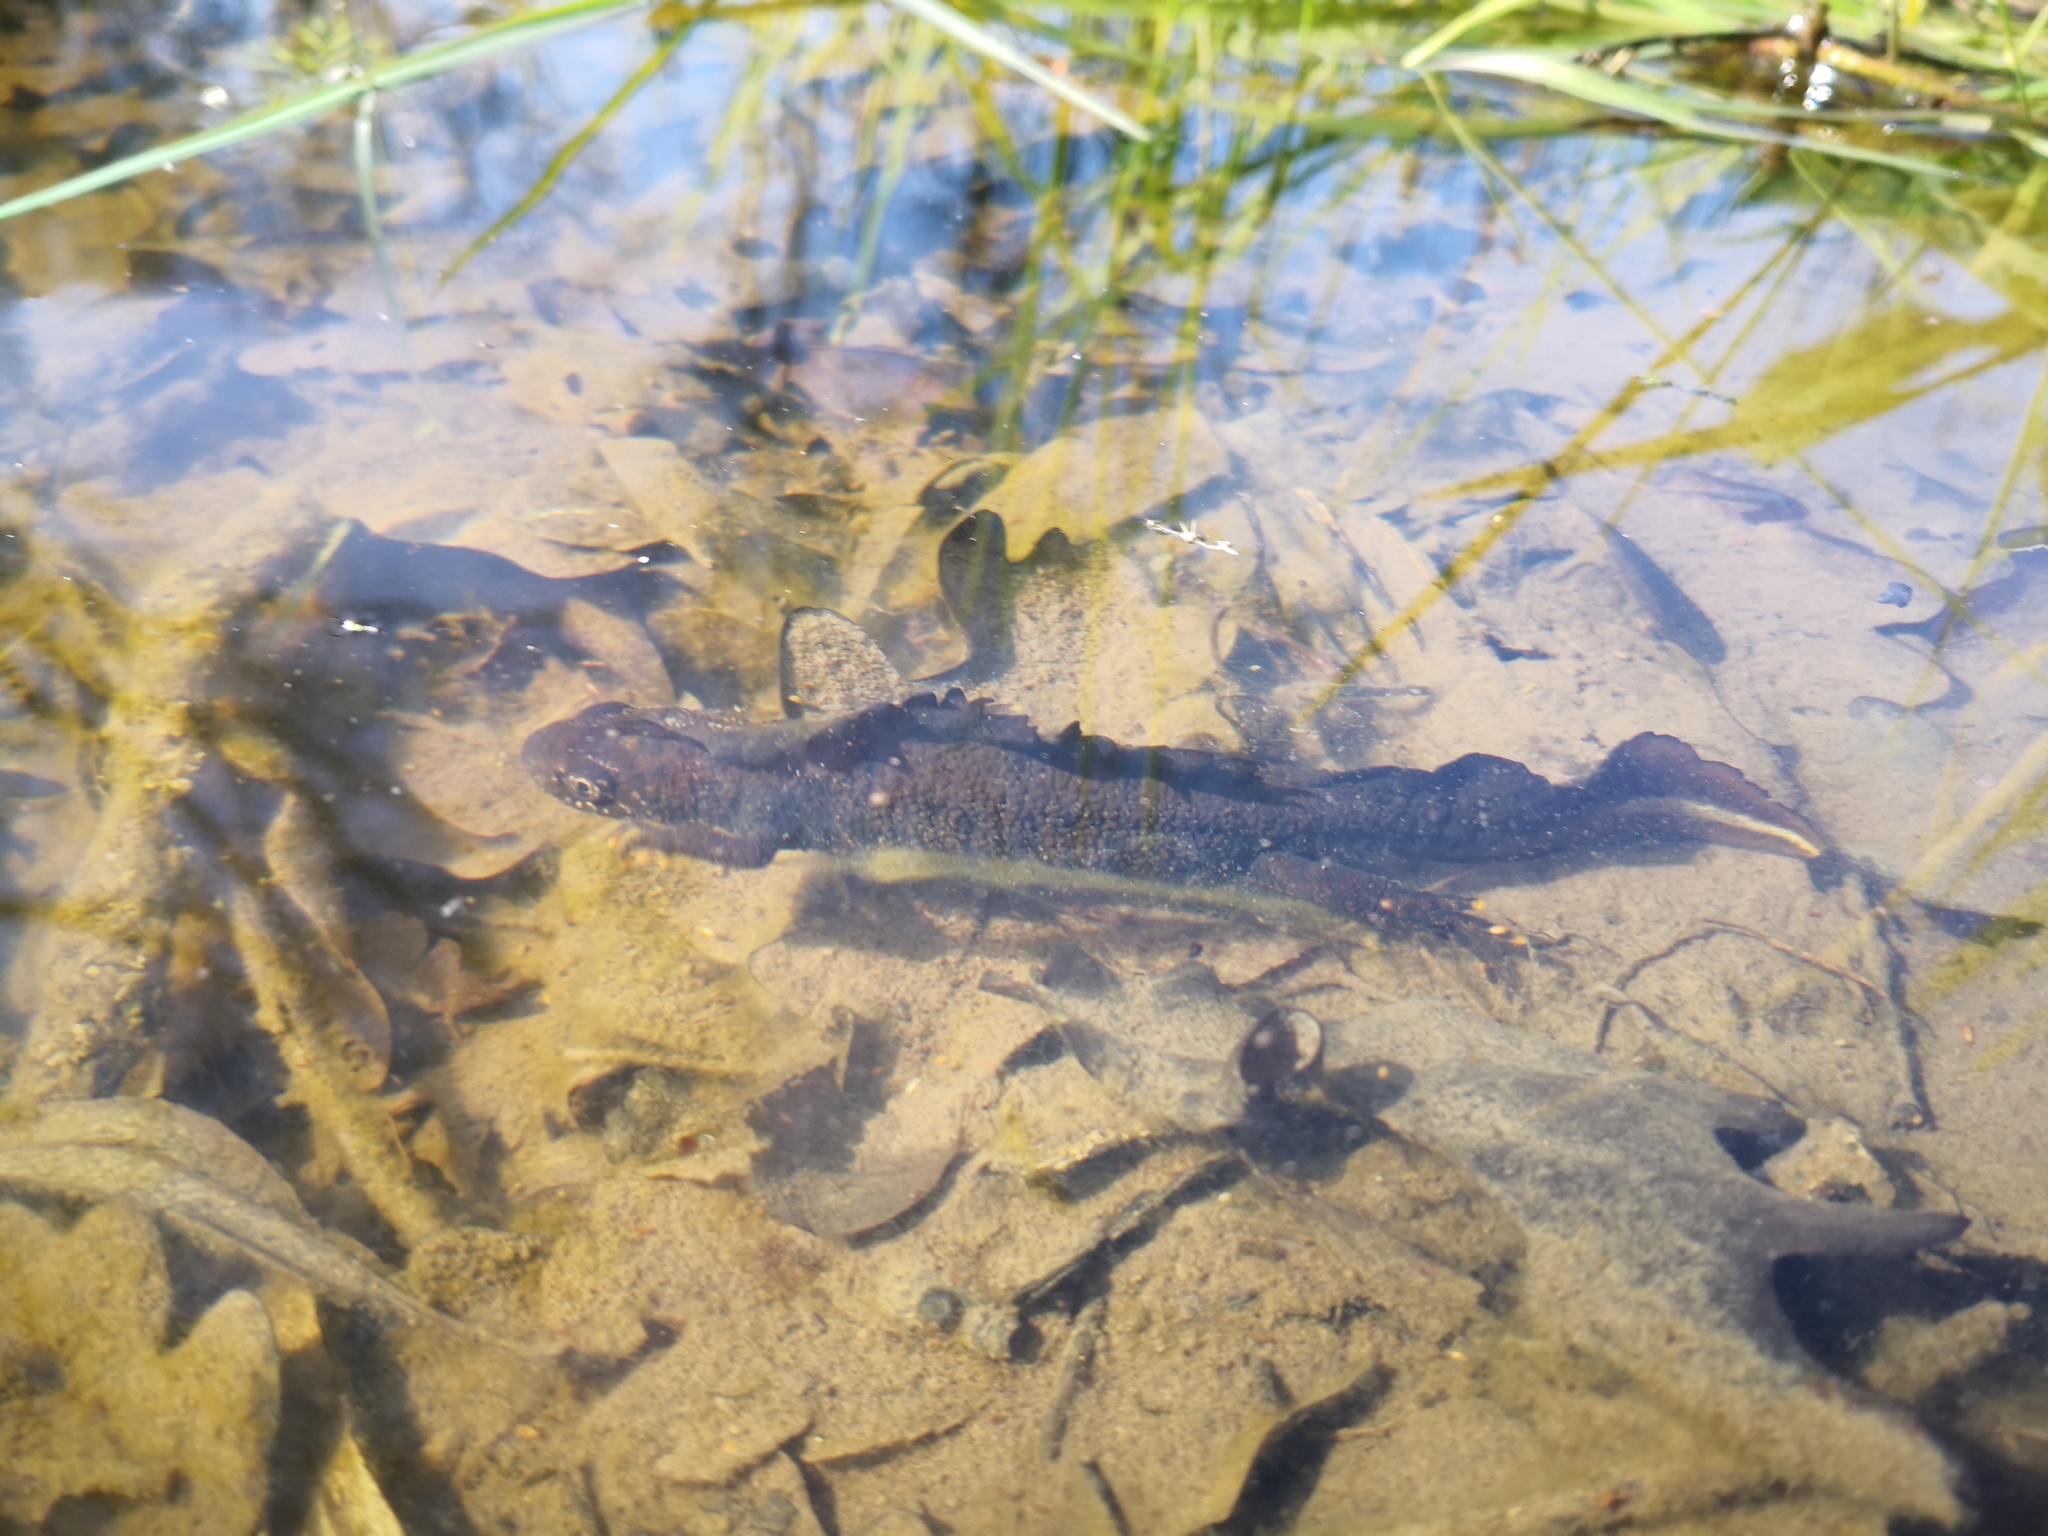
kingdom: Animalia
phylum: Chordata
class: Amphibia
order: Caudata
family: Salamandridae
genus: Triturus
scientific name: Triturus cristatus
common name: Crested newt
